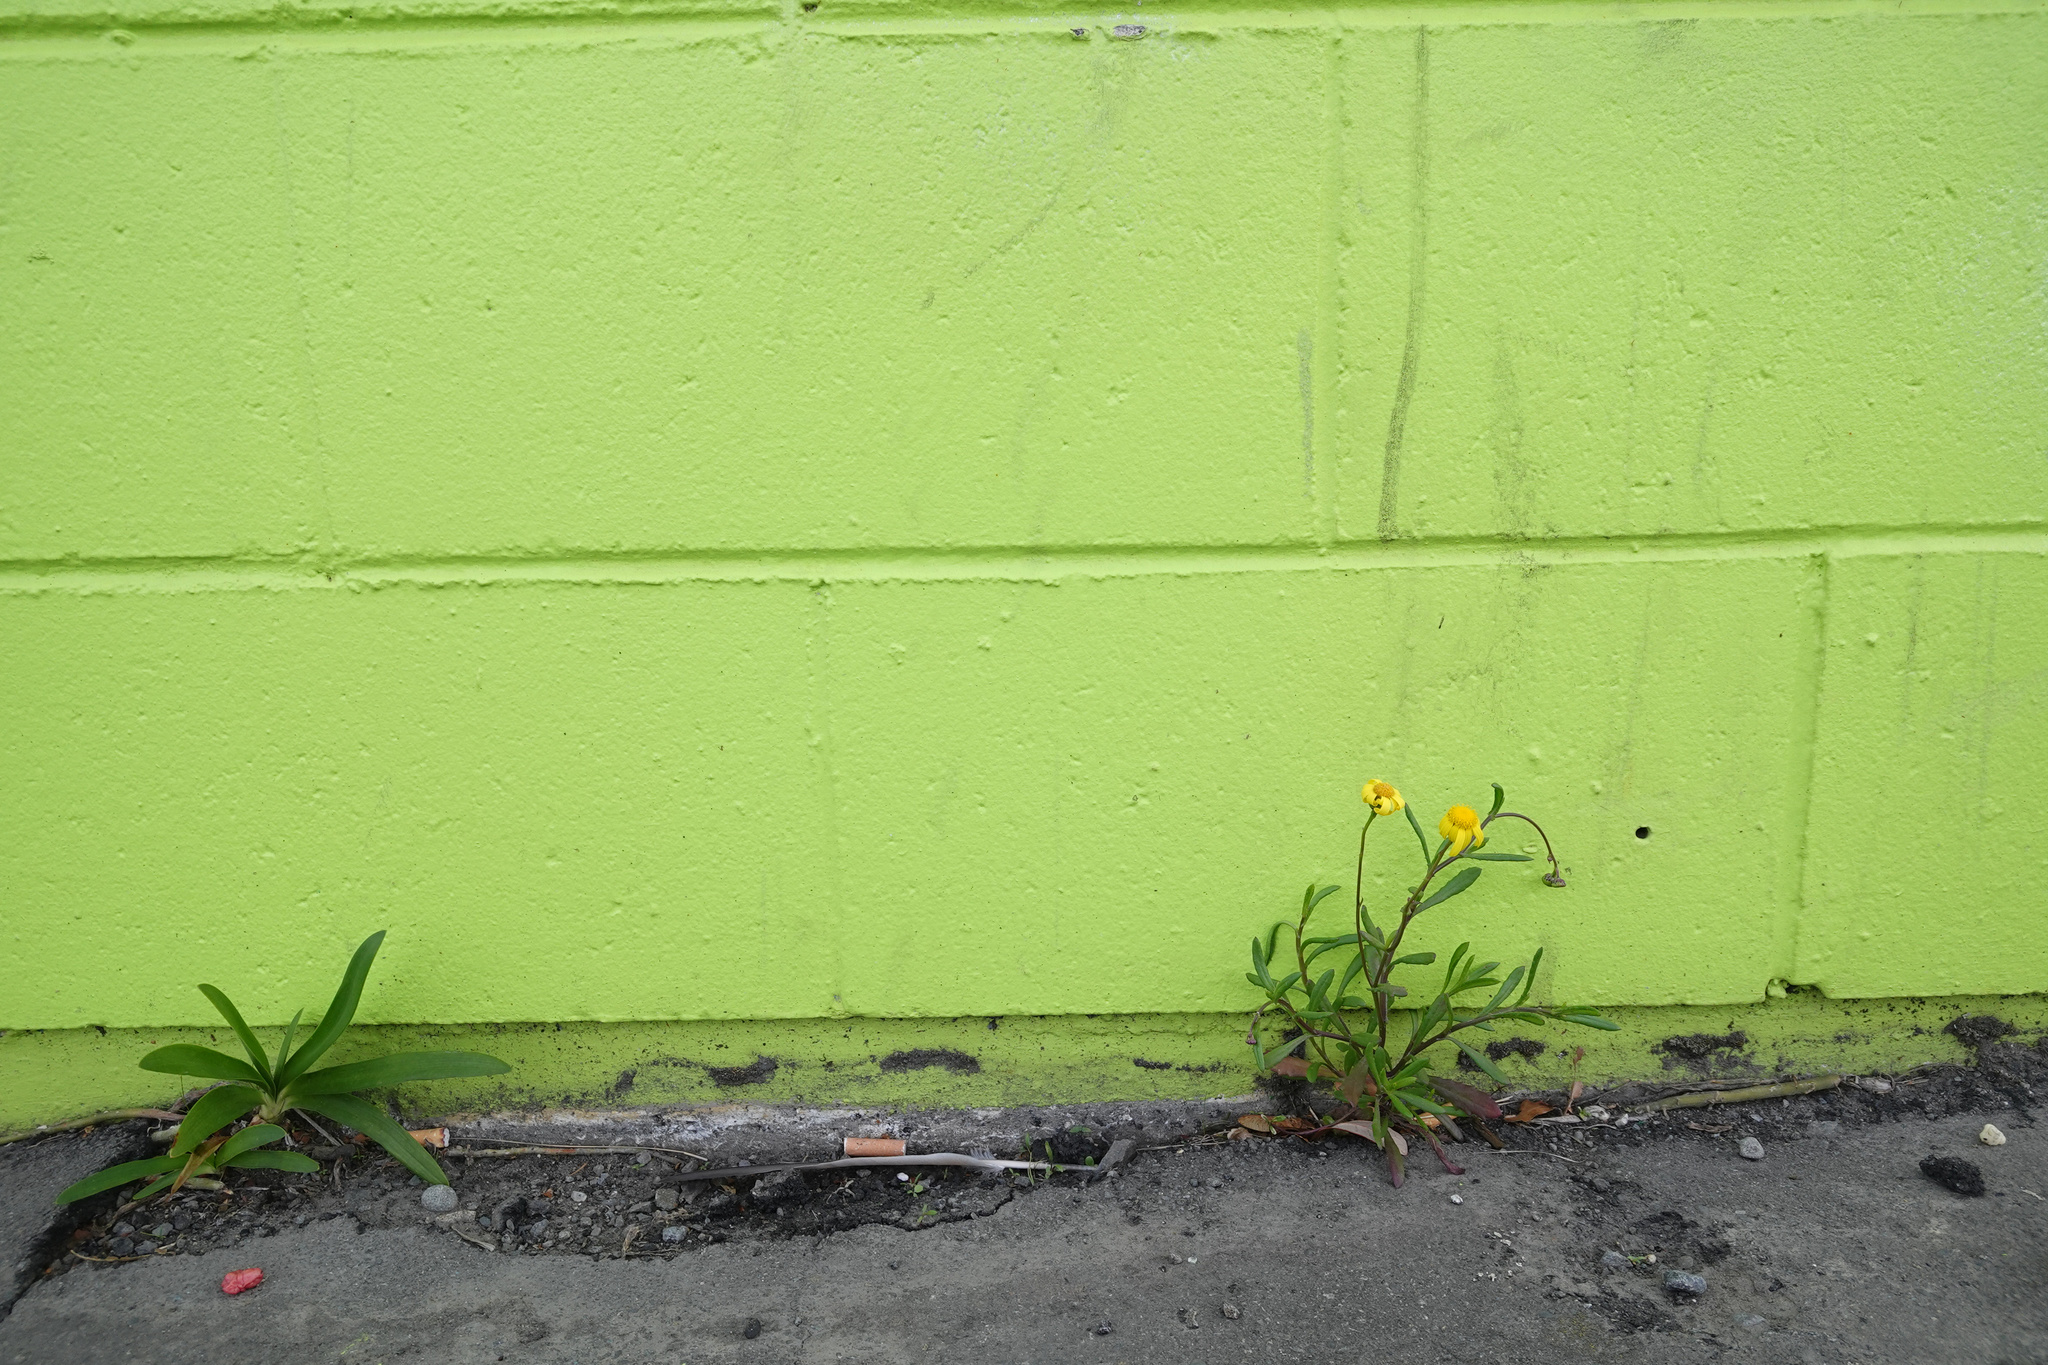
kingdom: Plantae
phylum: Tracheophyta
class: Magnoliopsida
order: Asterales
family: Asteraceae
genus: Senecio
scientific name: Senecio skirrhodon
